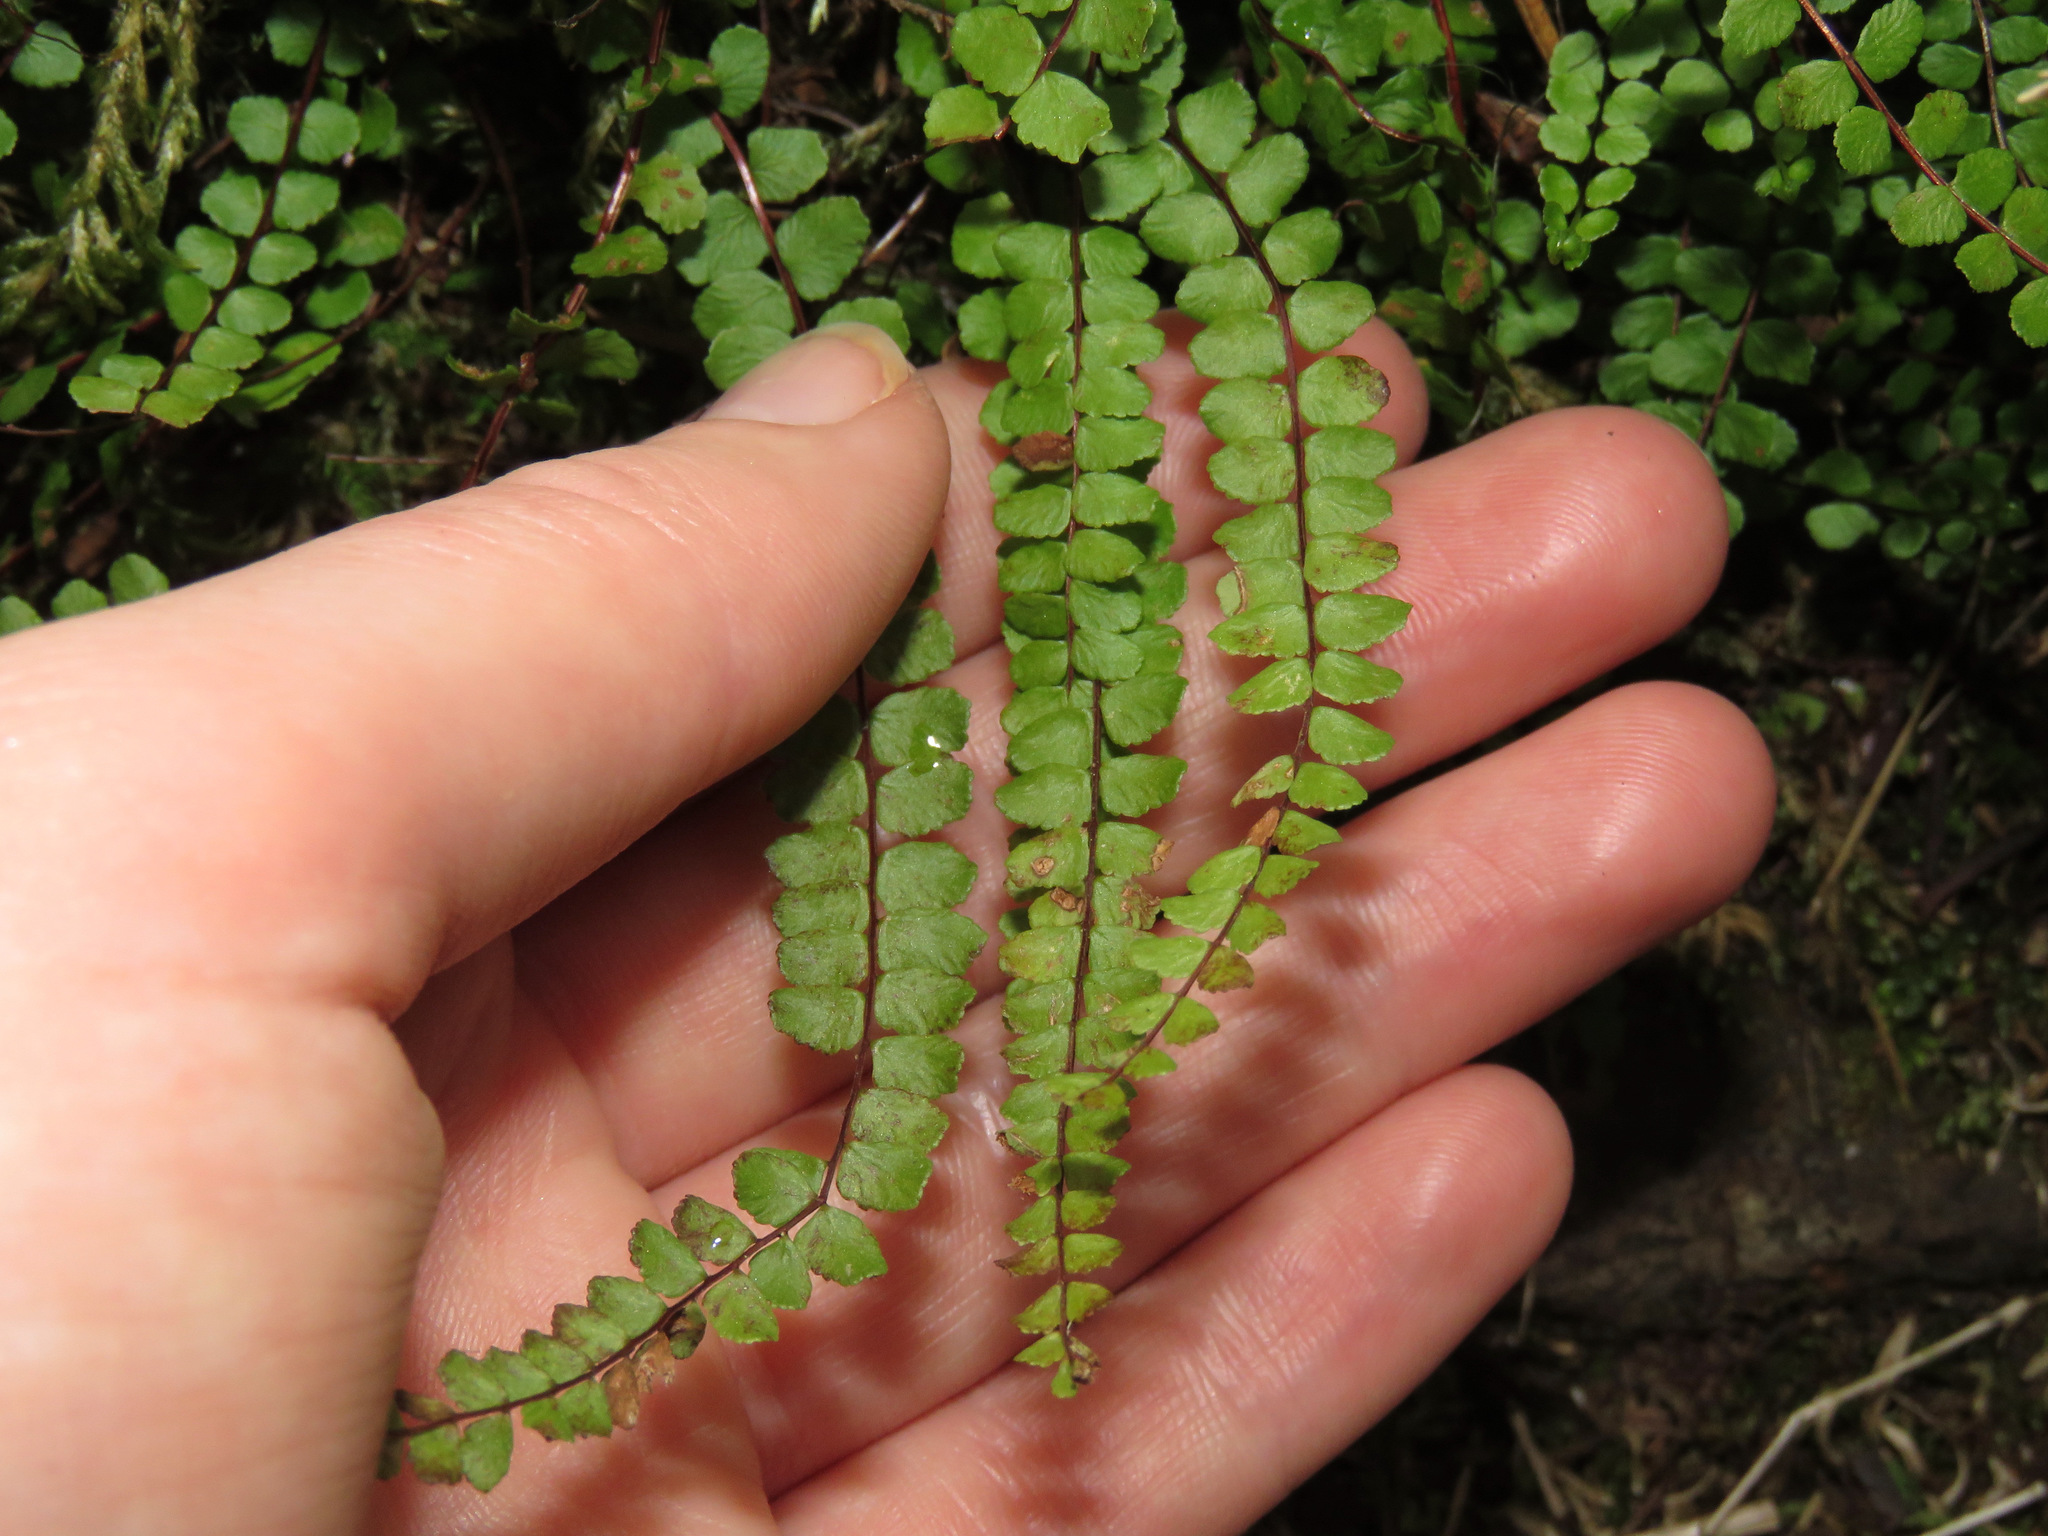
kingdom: Plantae
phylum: Tracheophyta
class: Polypodiopsida
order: Polypodiales
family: Aspleniaceae
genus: Asplenium
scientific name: Asplenium trichomanes
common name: Maidenhair spleenwort
